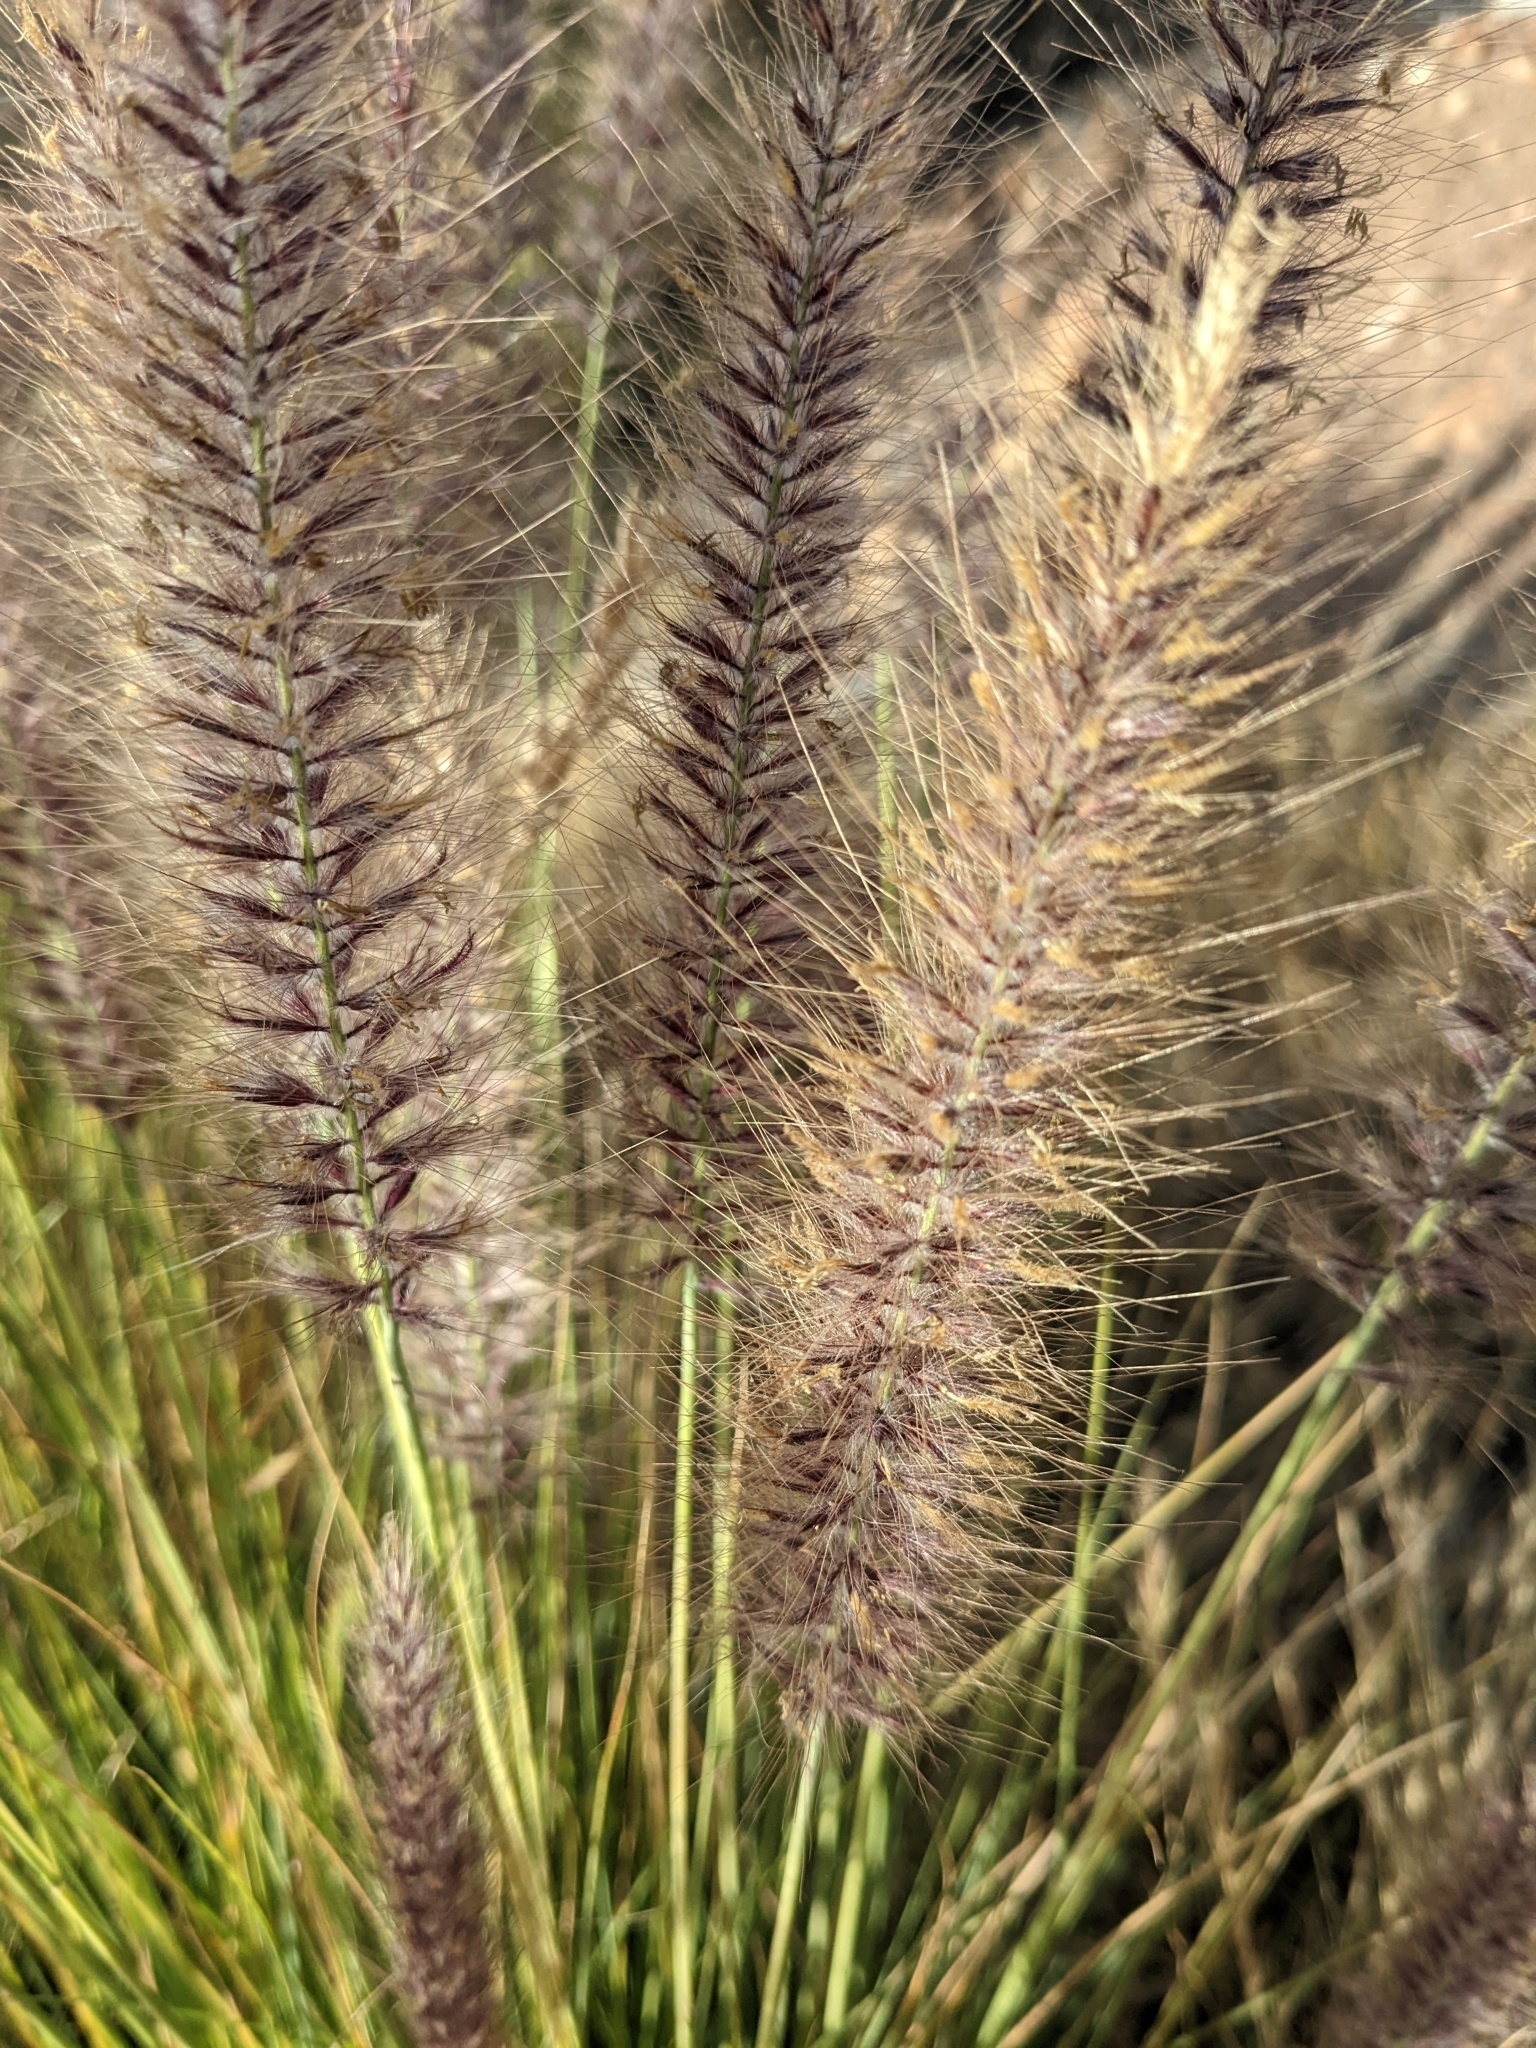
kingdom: Plantae
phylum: Tracheophyta
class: Liliopsida
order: Poales
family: Poaceae
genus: Cenchrus
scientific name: Cenchrus setaceus
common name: Crimson fountaingrass
